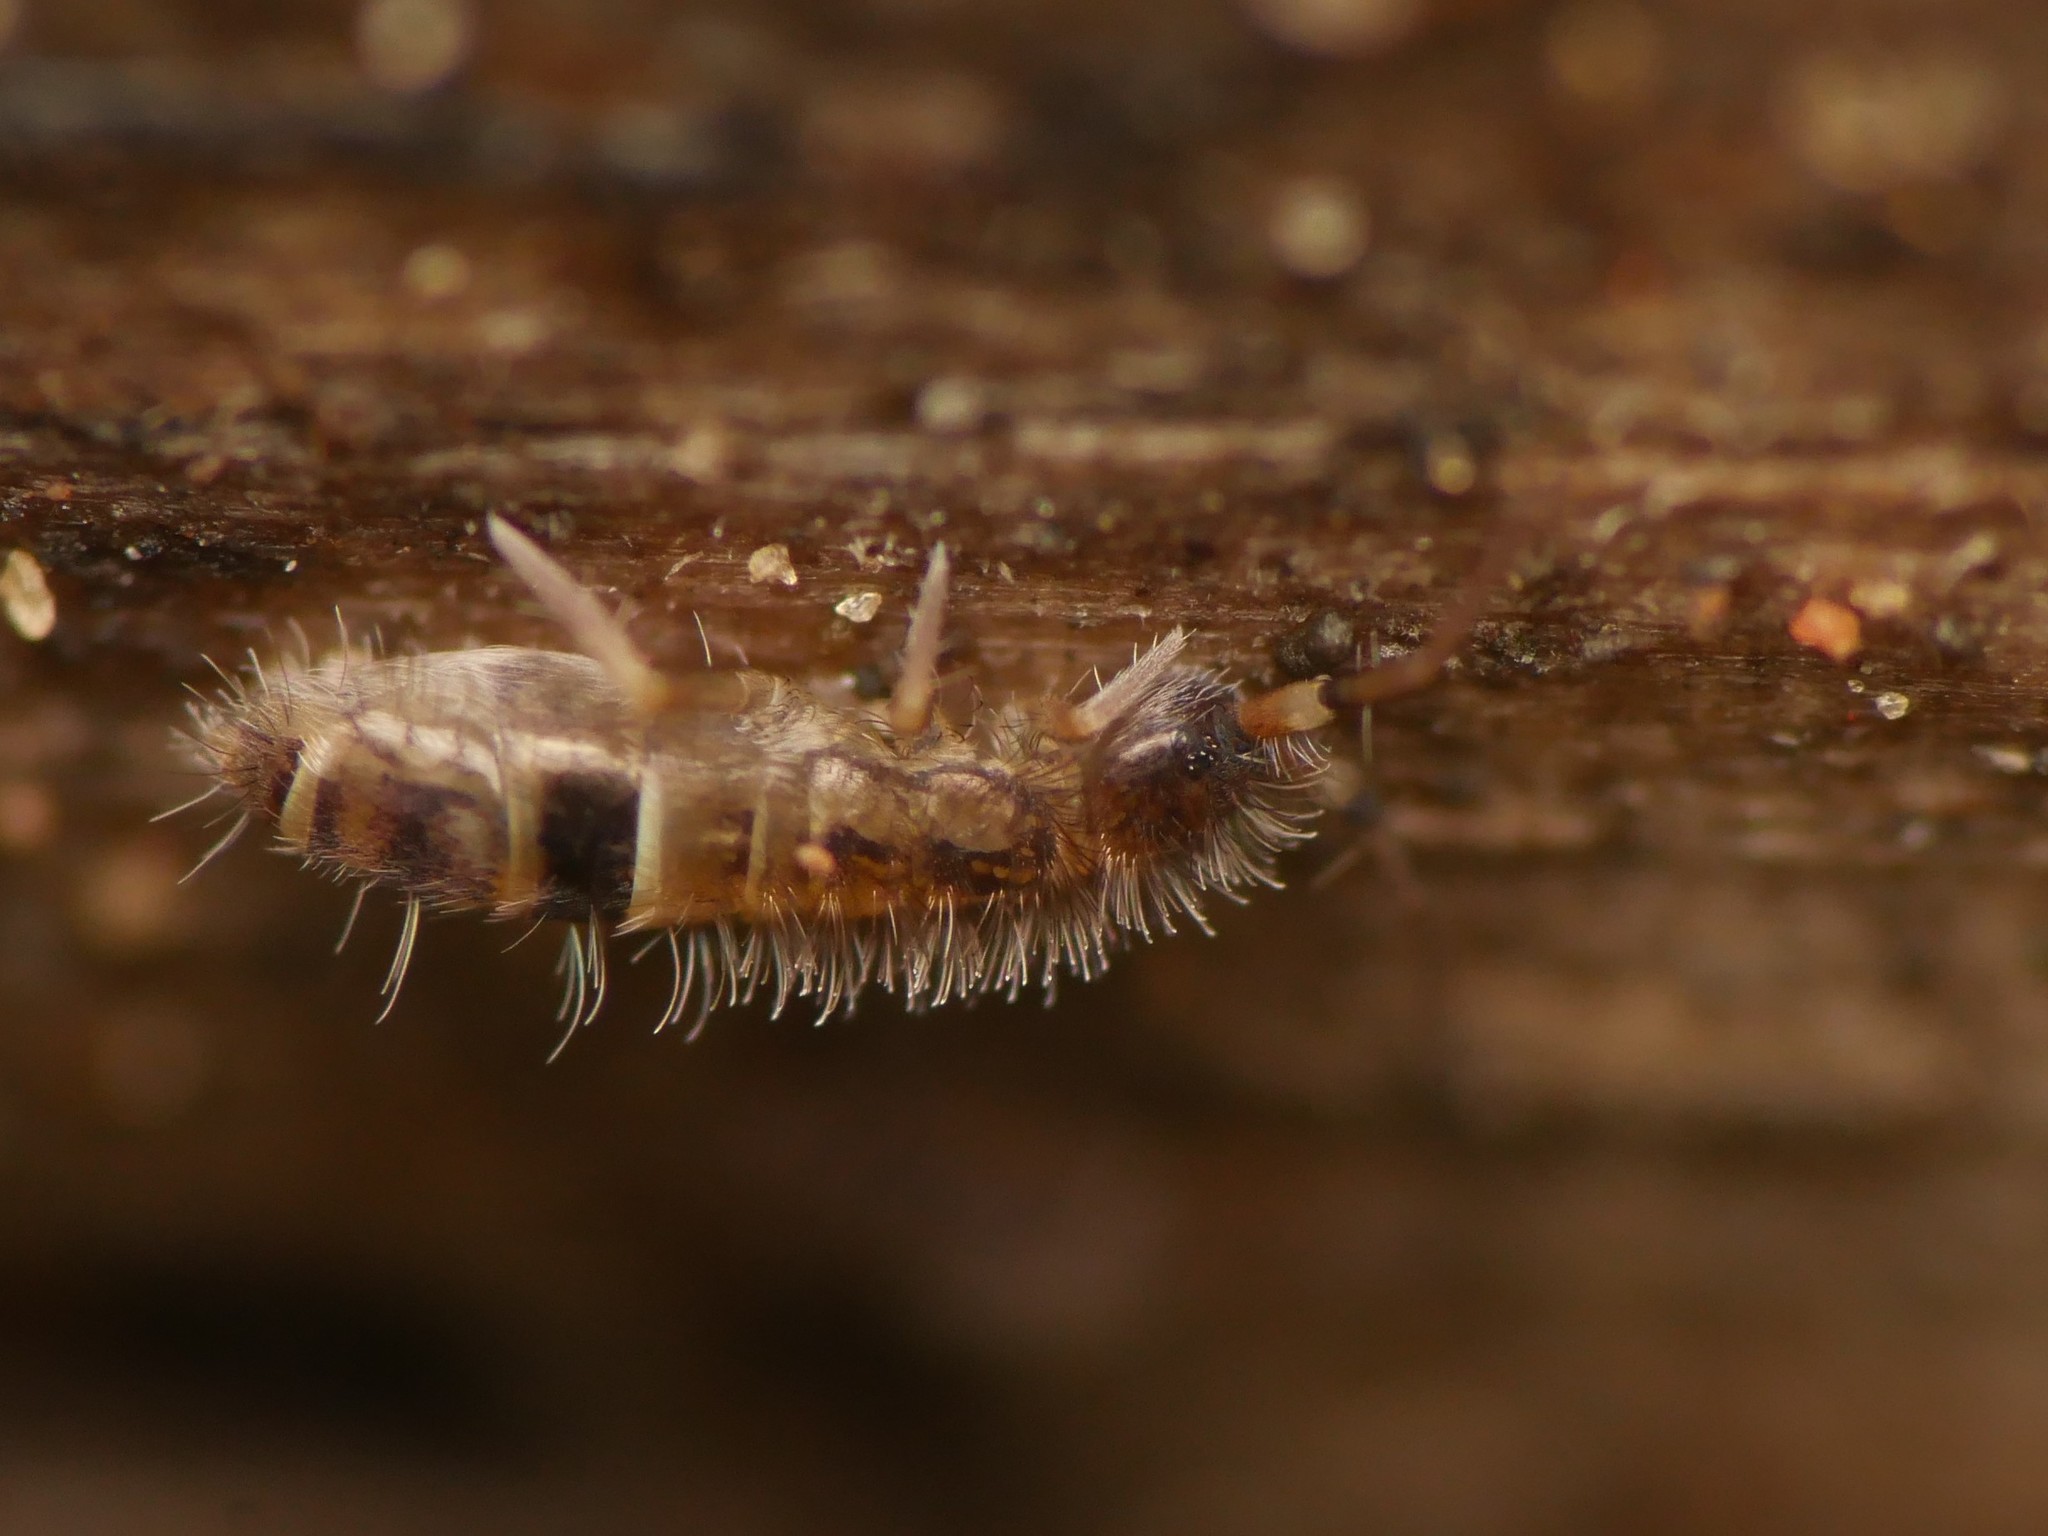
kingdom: Animalia
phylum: Arthropoda
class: Collembola
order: Entomobryomorpha
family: Orchesellidae
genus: Orchesella
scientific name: Orchesella cincta
